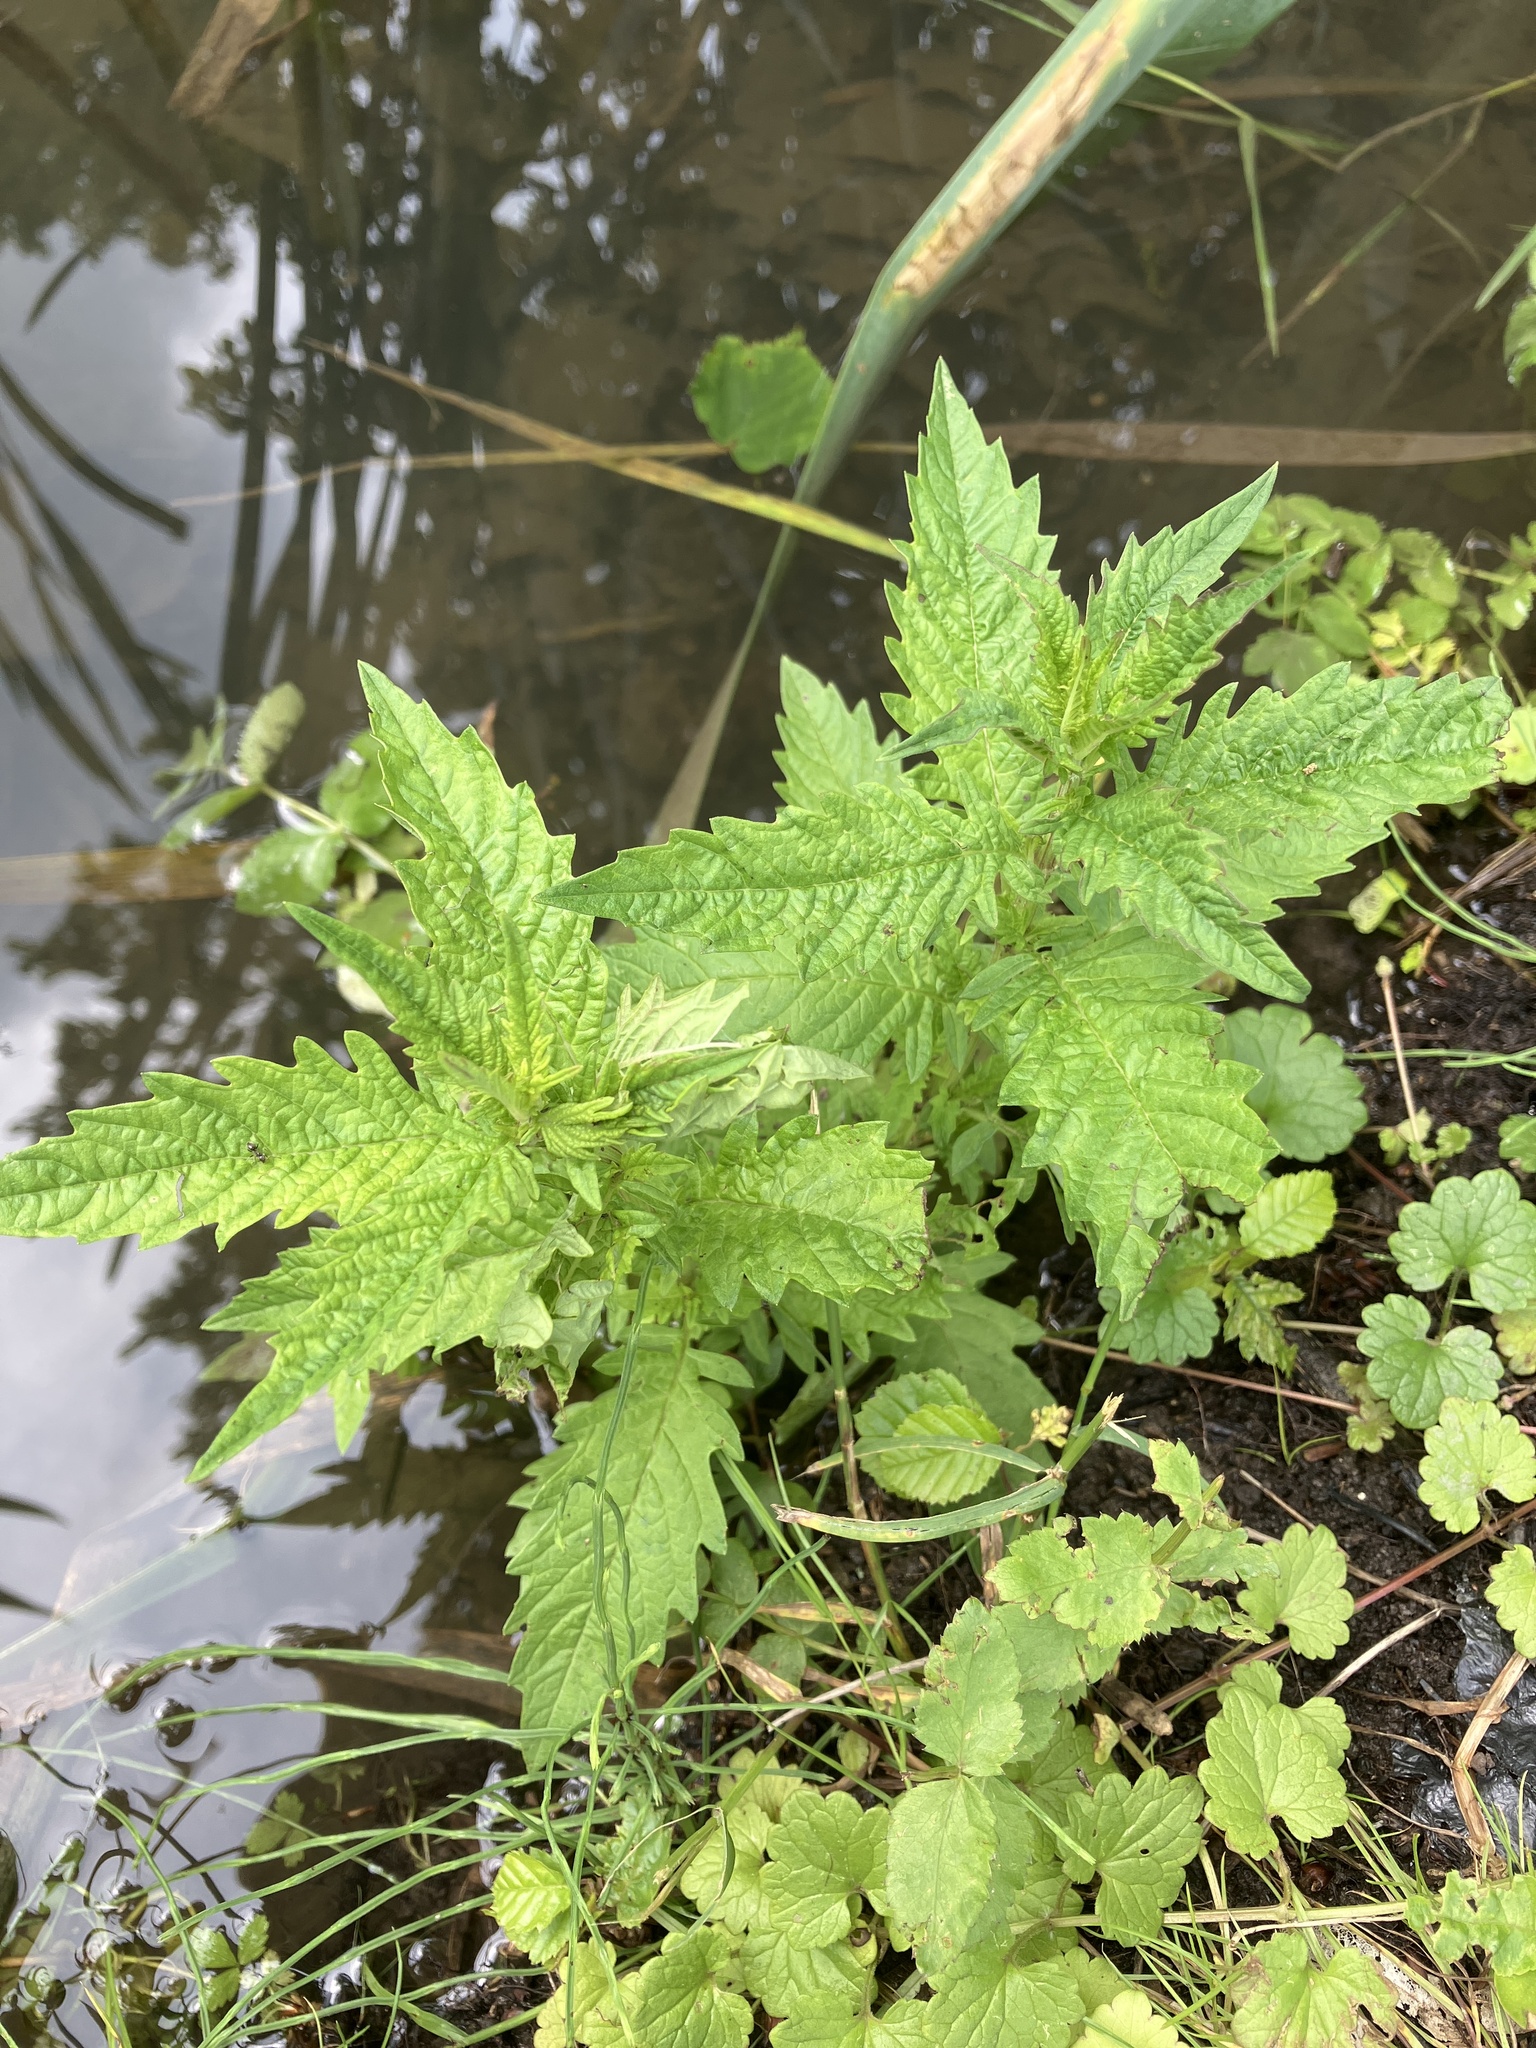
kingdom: Plantae
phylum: Tracheophyta
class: Magnoliopsida
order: Lamiales
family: Lamiaceae
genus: Lycopus
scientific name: Lycopus europaeus
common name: European bugleweed
